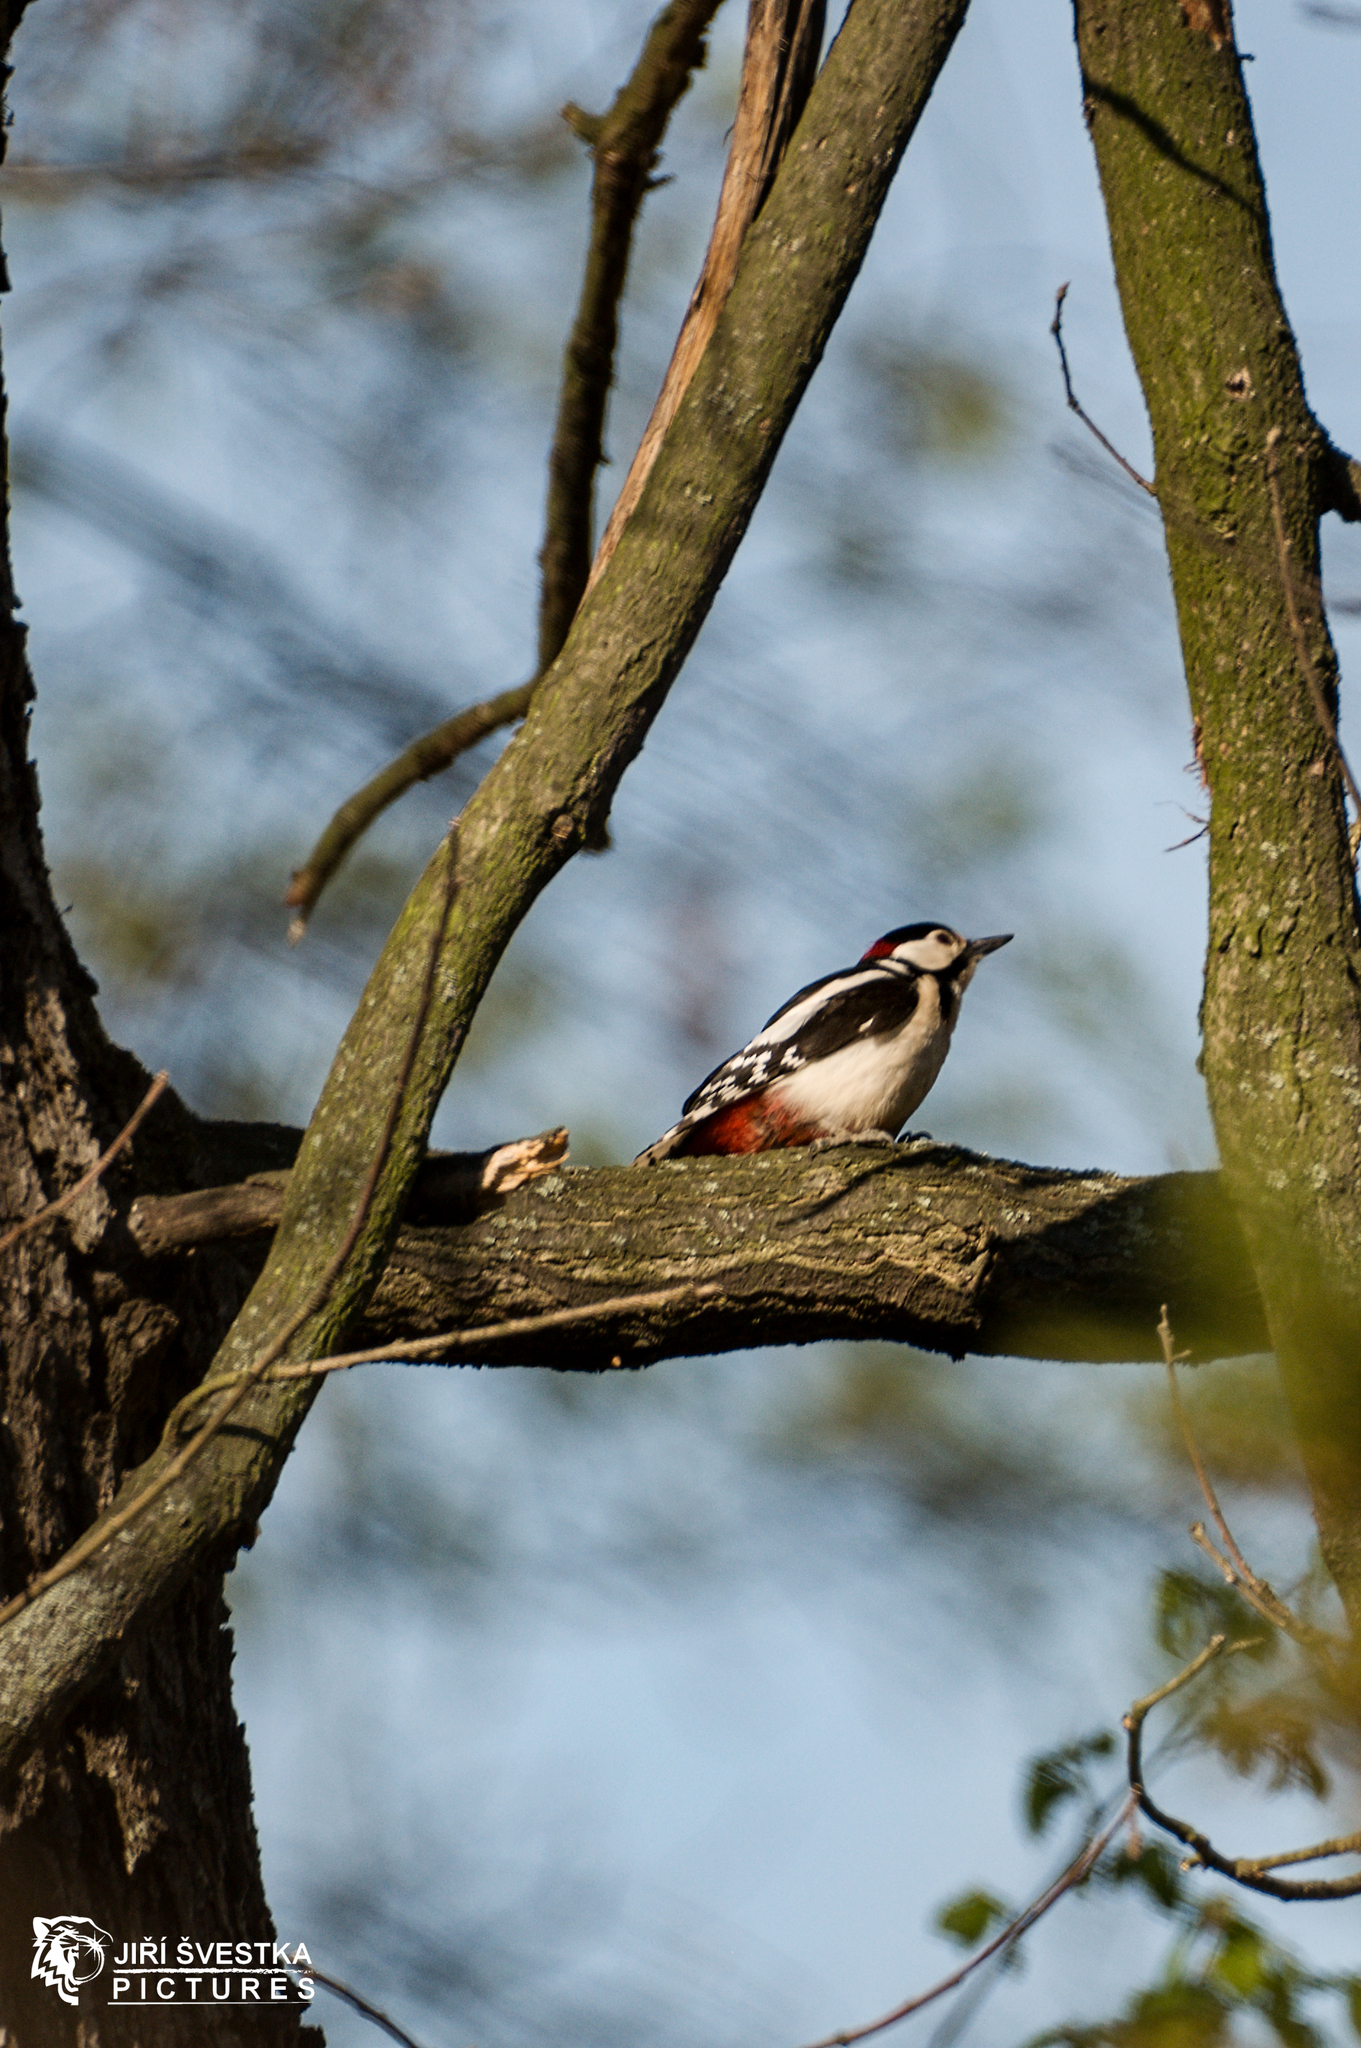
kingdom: Animalia
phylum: Chordata
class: Aves
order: Piciformes
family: Picidae
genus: Dendrocopos
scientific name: Dendrocopos major
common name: Great spotted woodpecker
